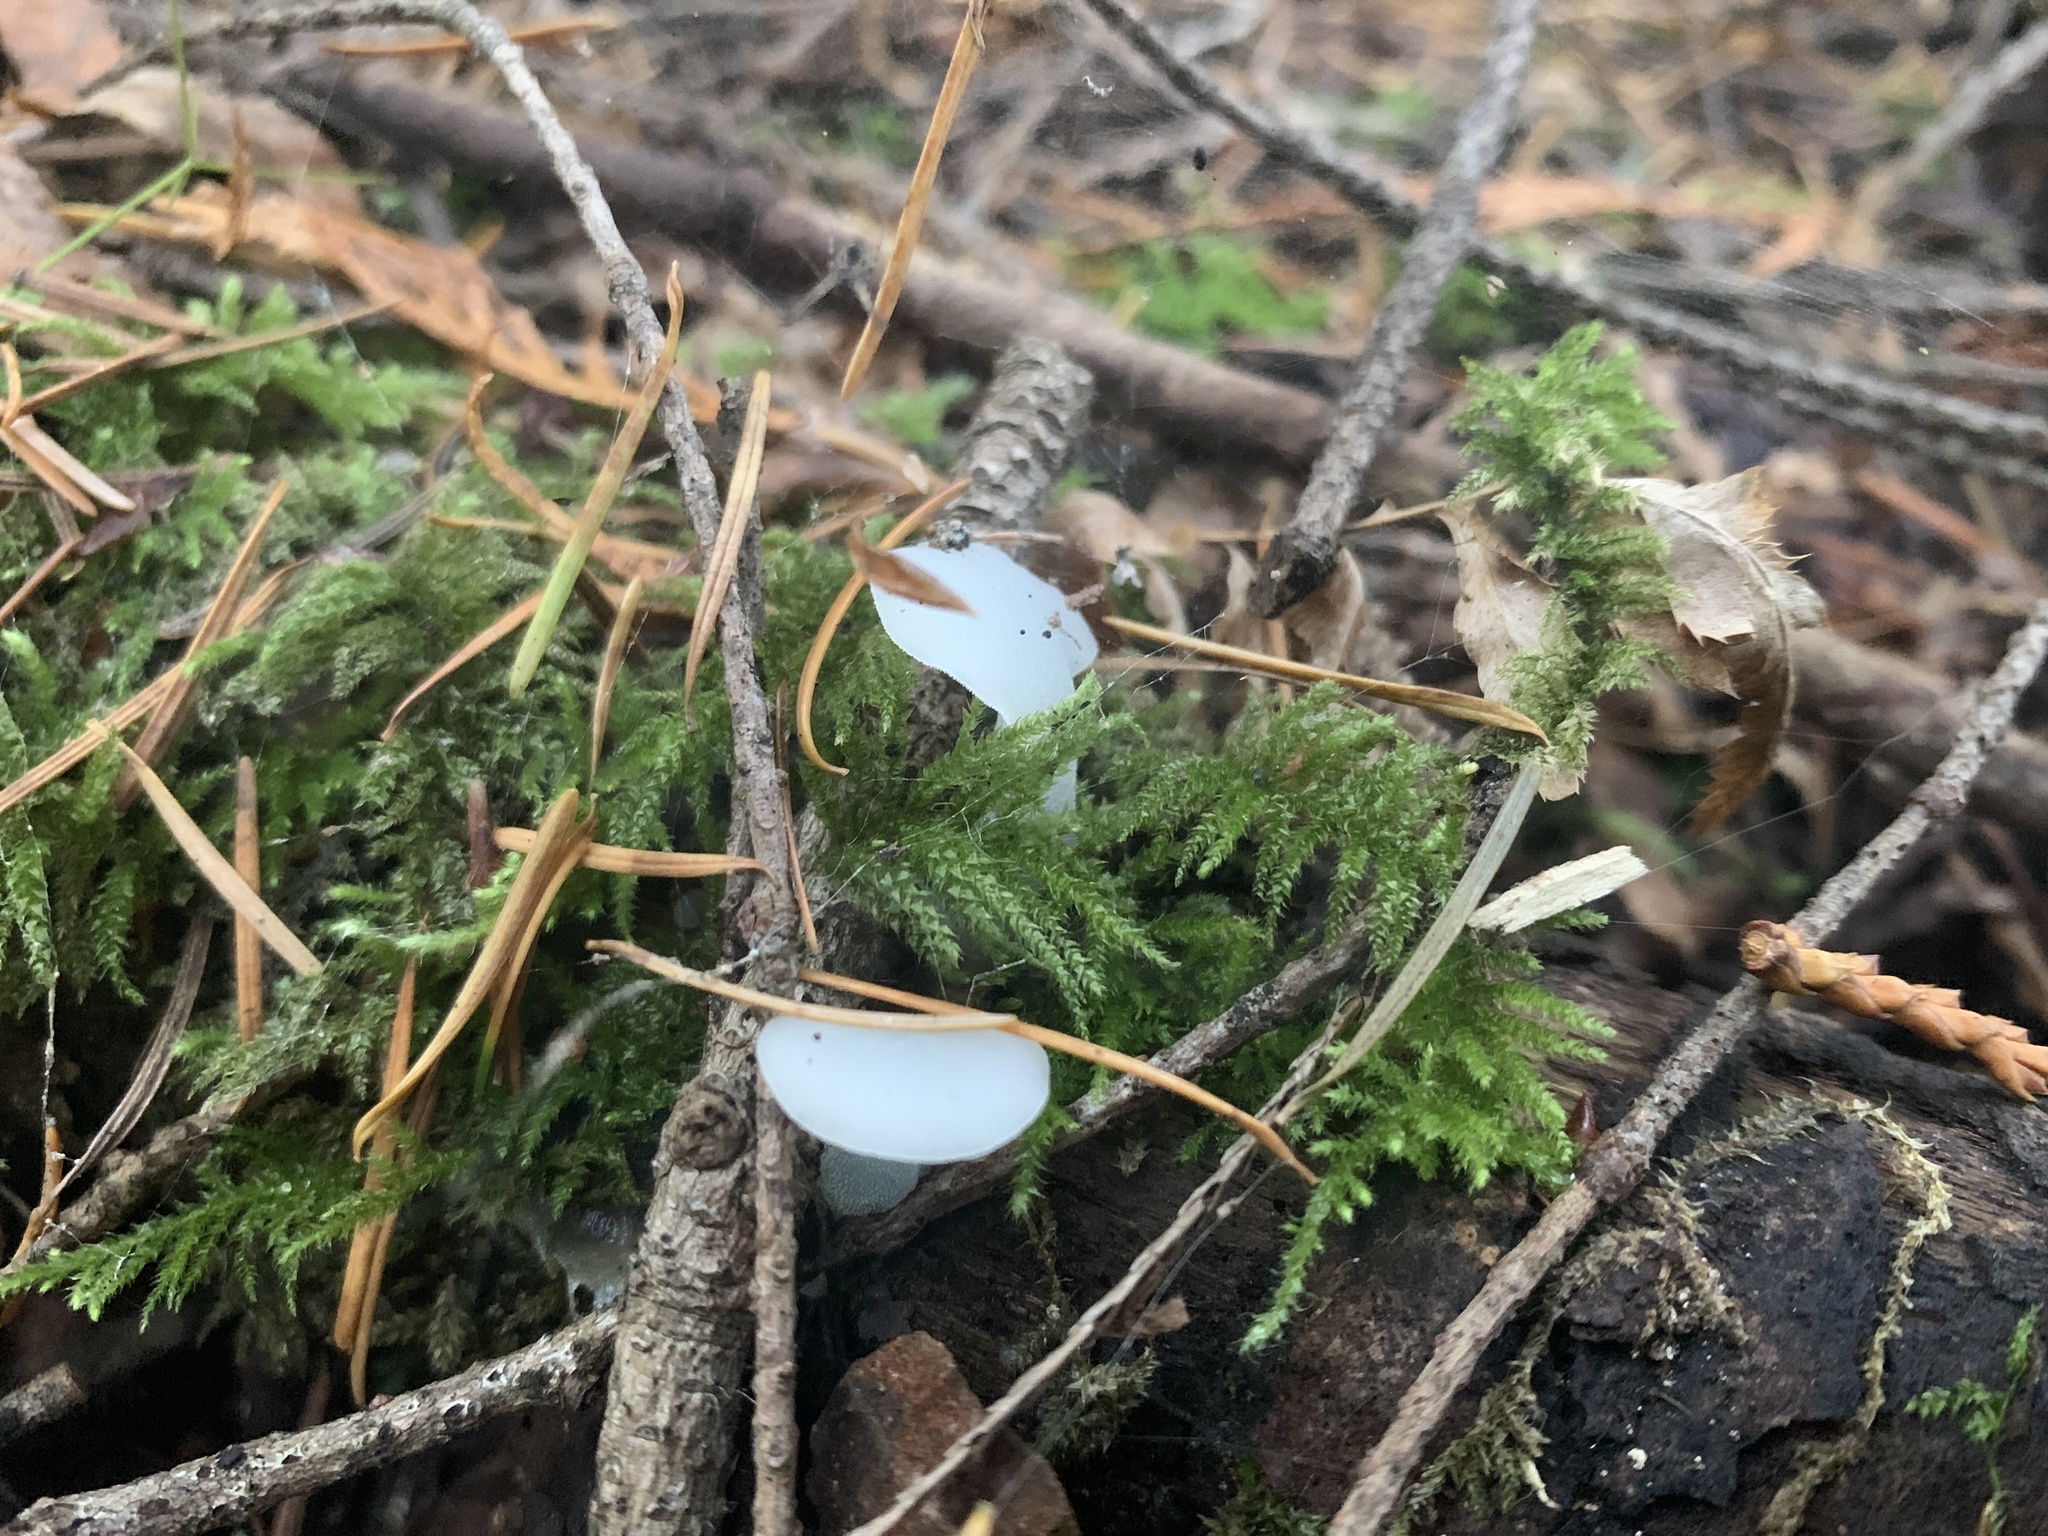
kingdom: Fungi
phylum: Basidiomycota
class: Agaricomycetes
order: Auriculariales
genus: Pseudohydnum
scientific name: Pseudohydnum gelatinosum
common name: Jelly tongue
